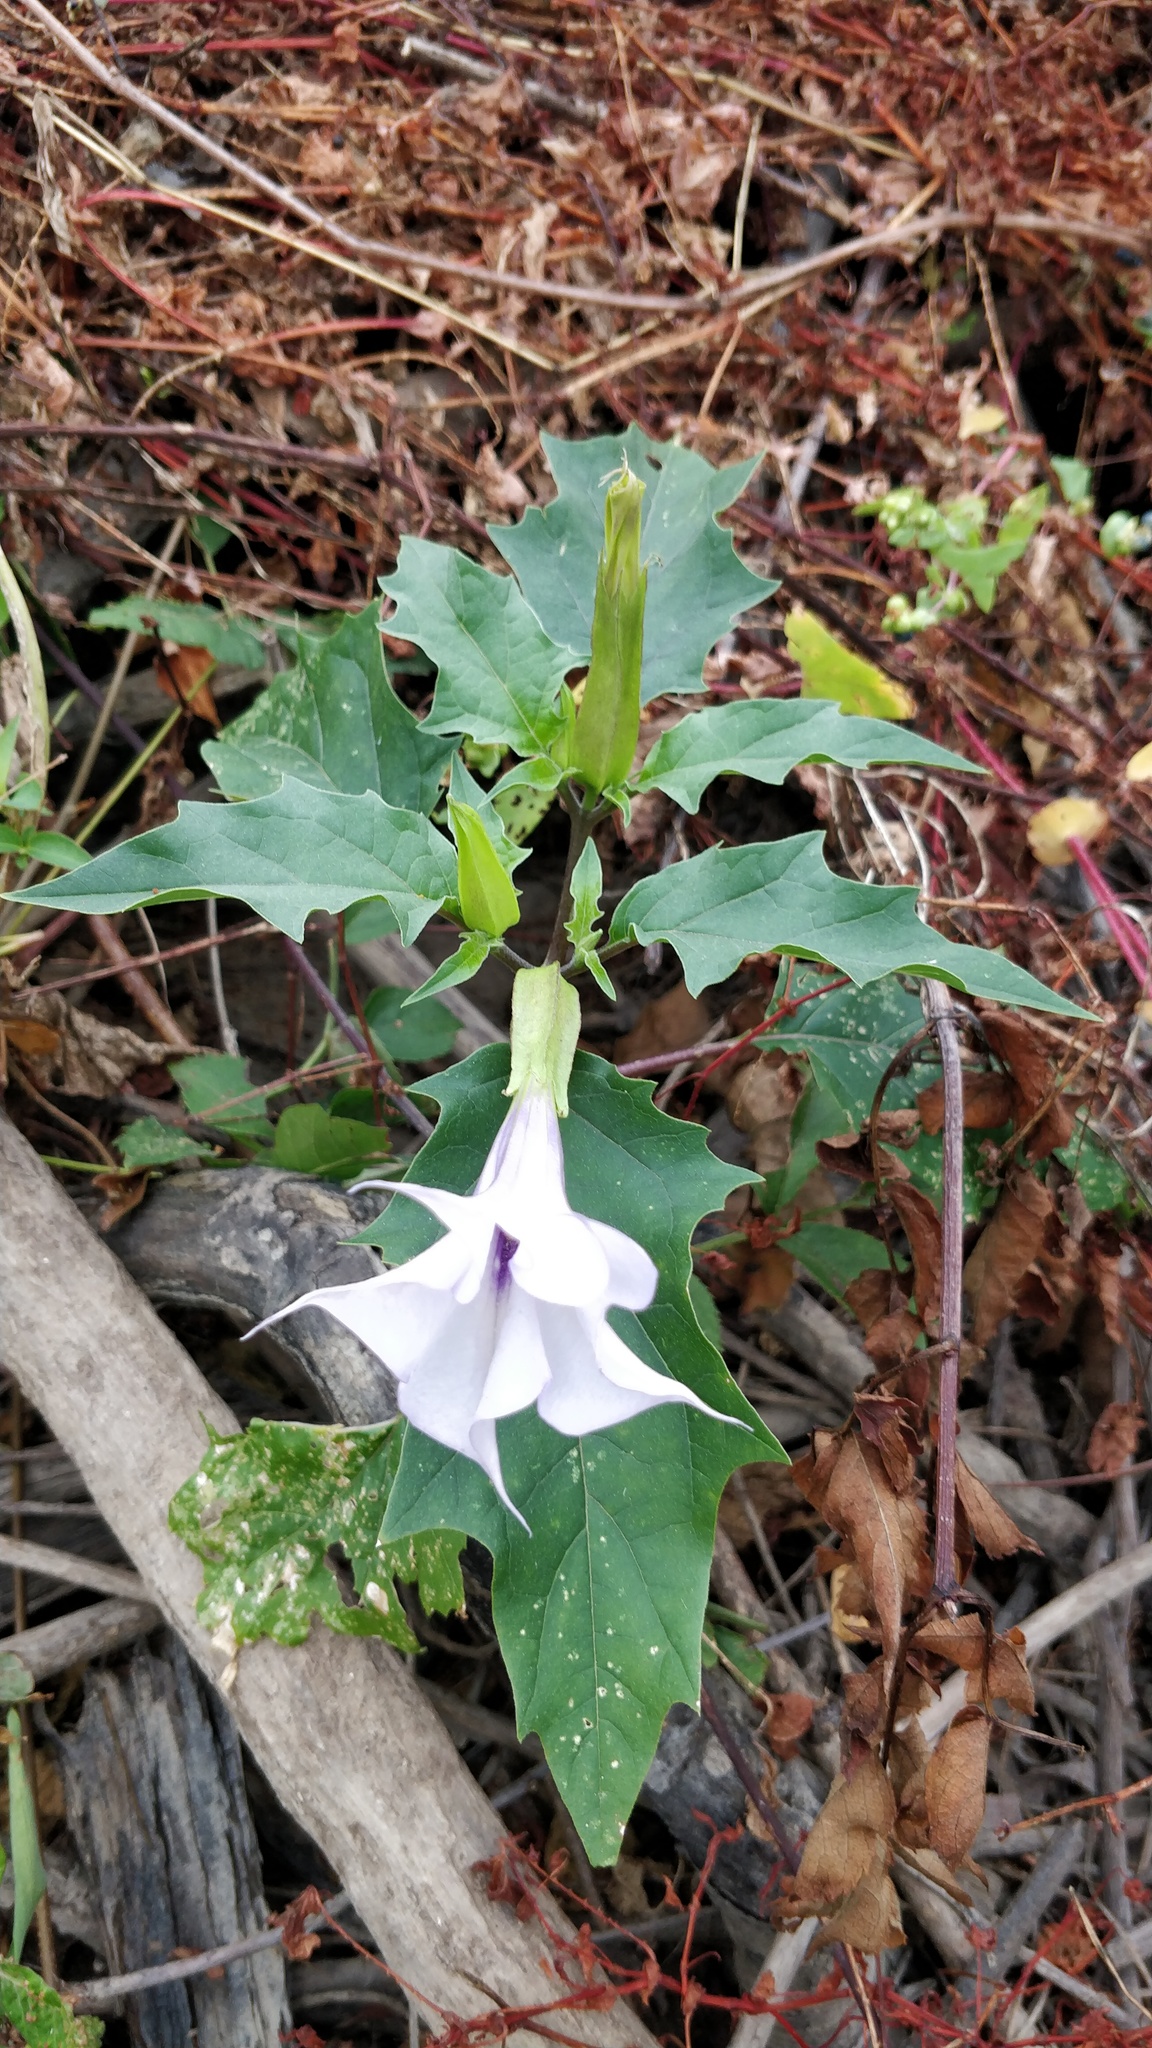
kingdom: Plantae
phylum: Tracheophyta
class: Magnoliopsida
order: Solanales
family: Solanaceae
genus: Datura
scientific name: Datura stramonium
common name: Thorn-apple
